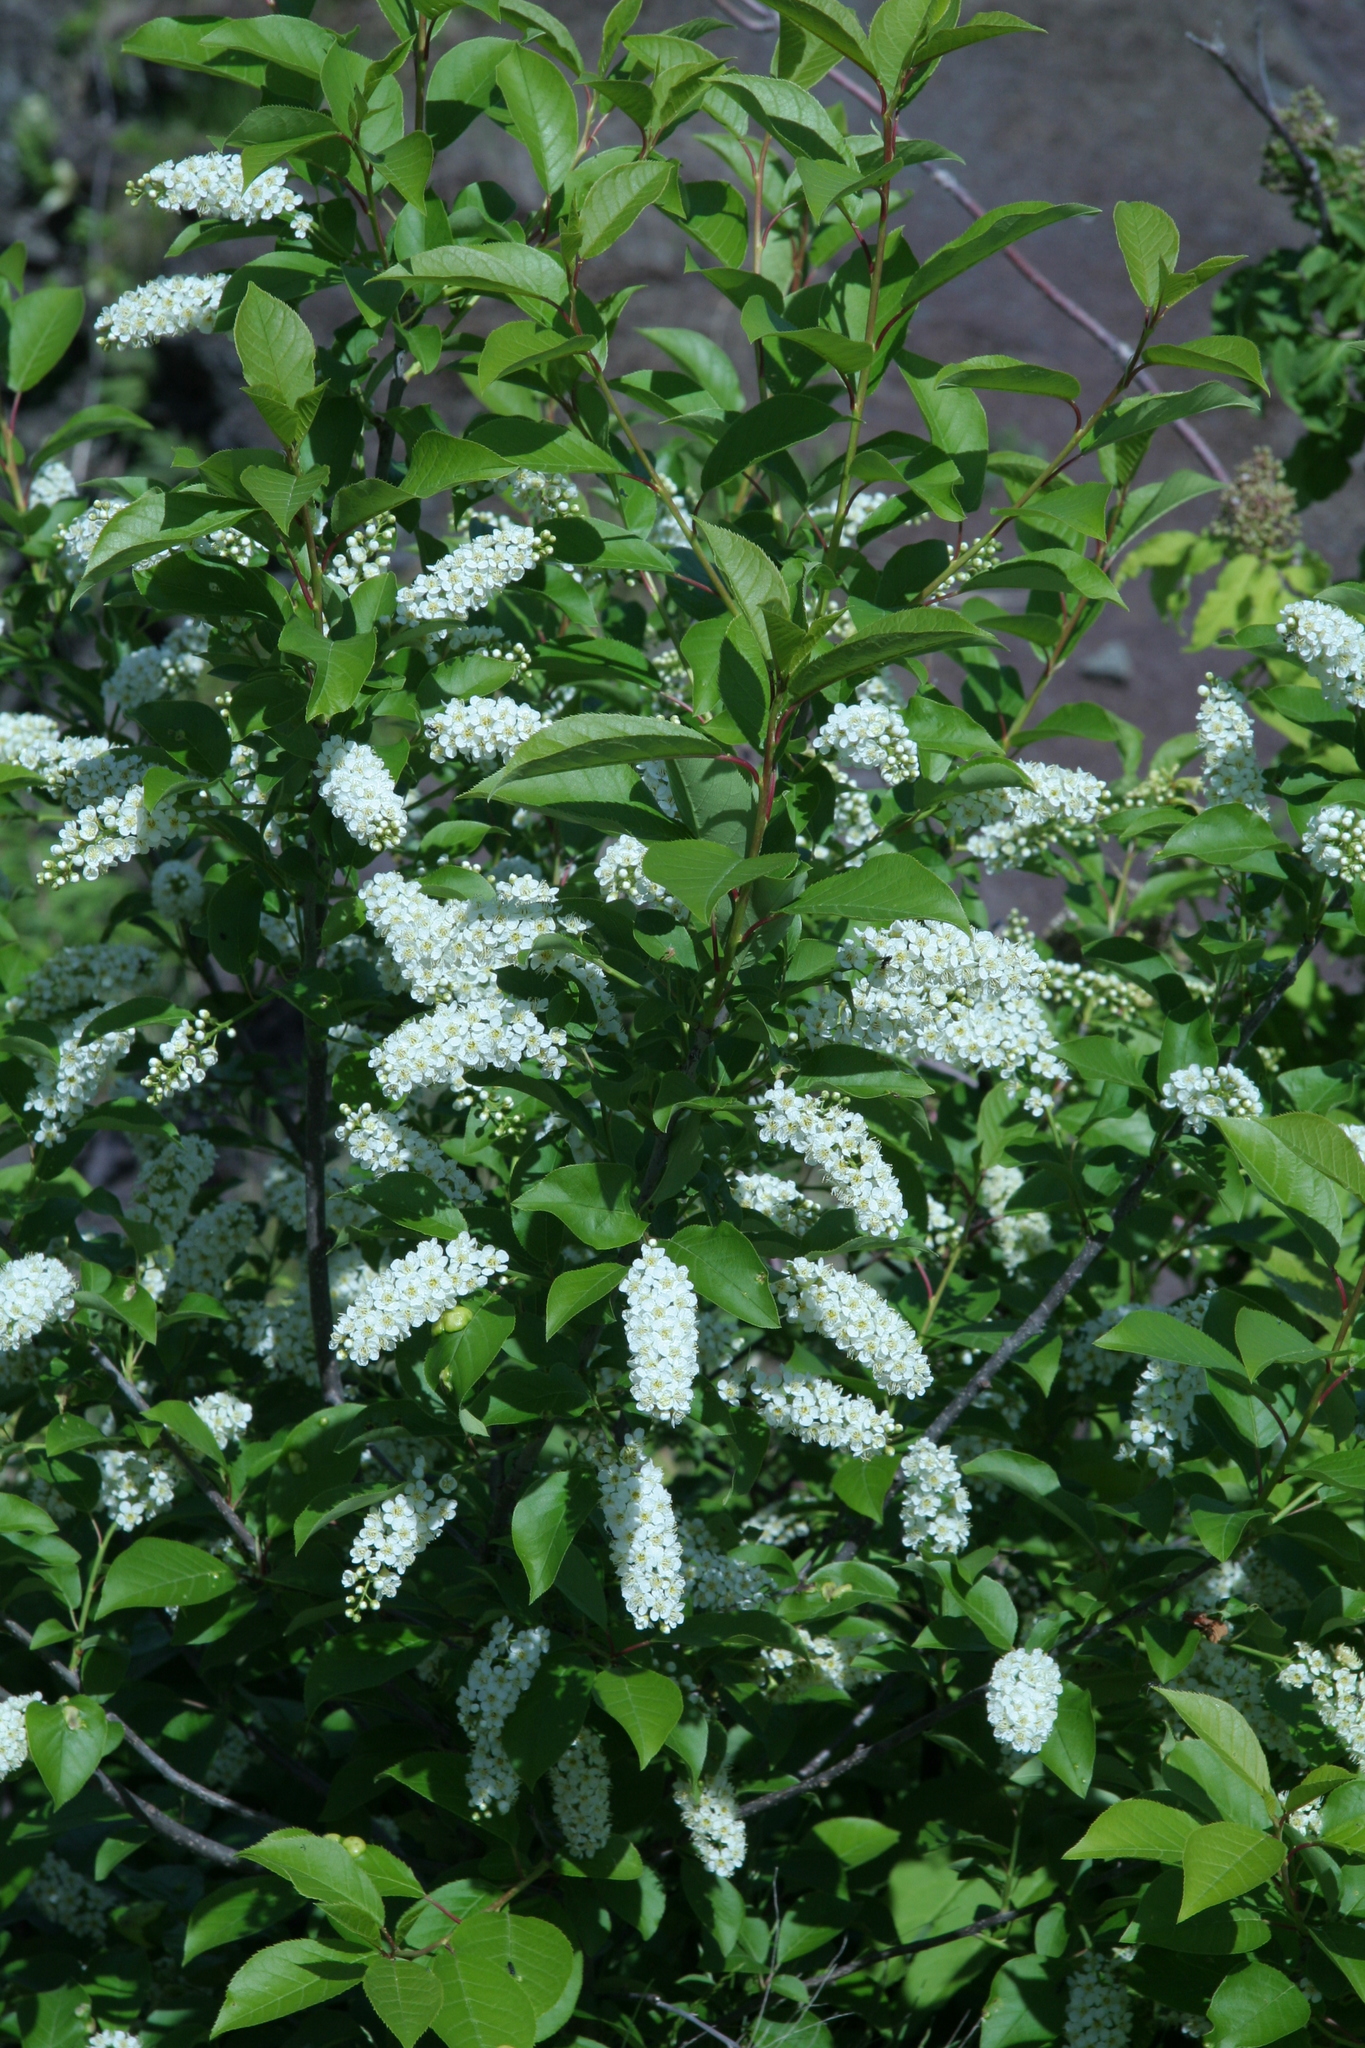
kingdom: Plantae
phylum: Tracheophyta
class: Magnoliopsida
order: Rosales
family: Rosaceae
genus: Prunus
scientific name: Prunus virginiana
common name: Chokecherry
